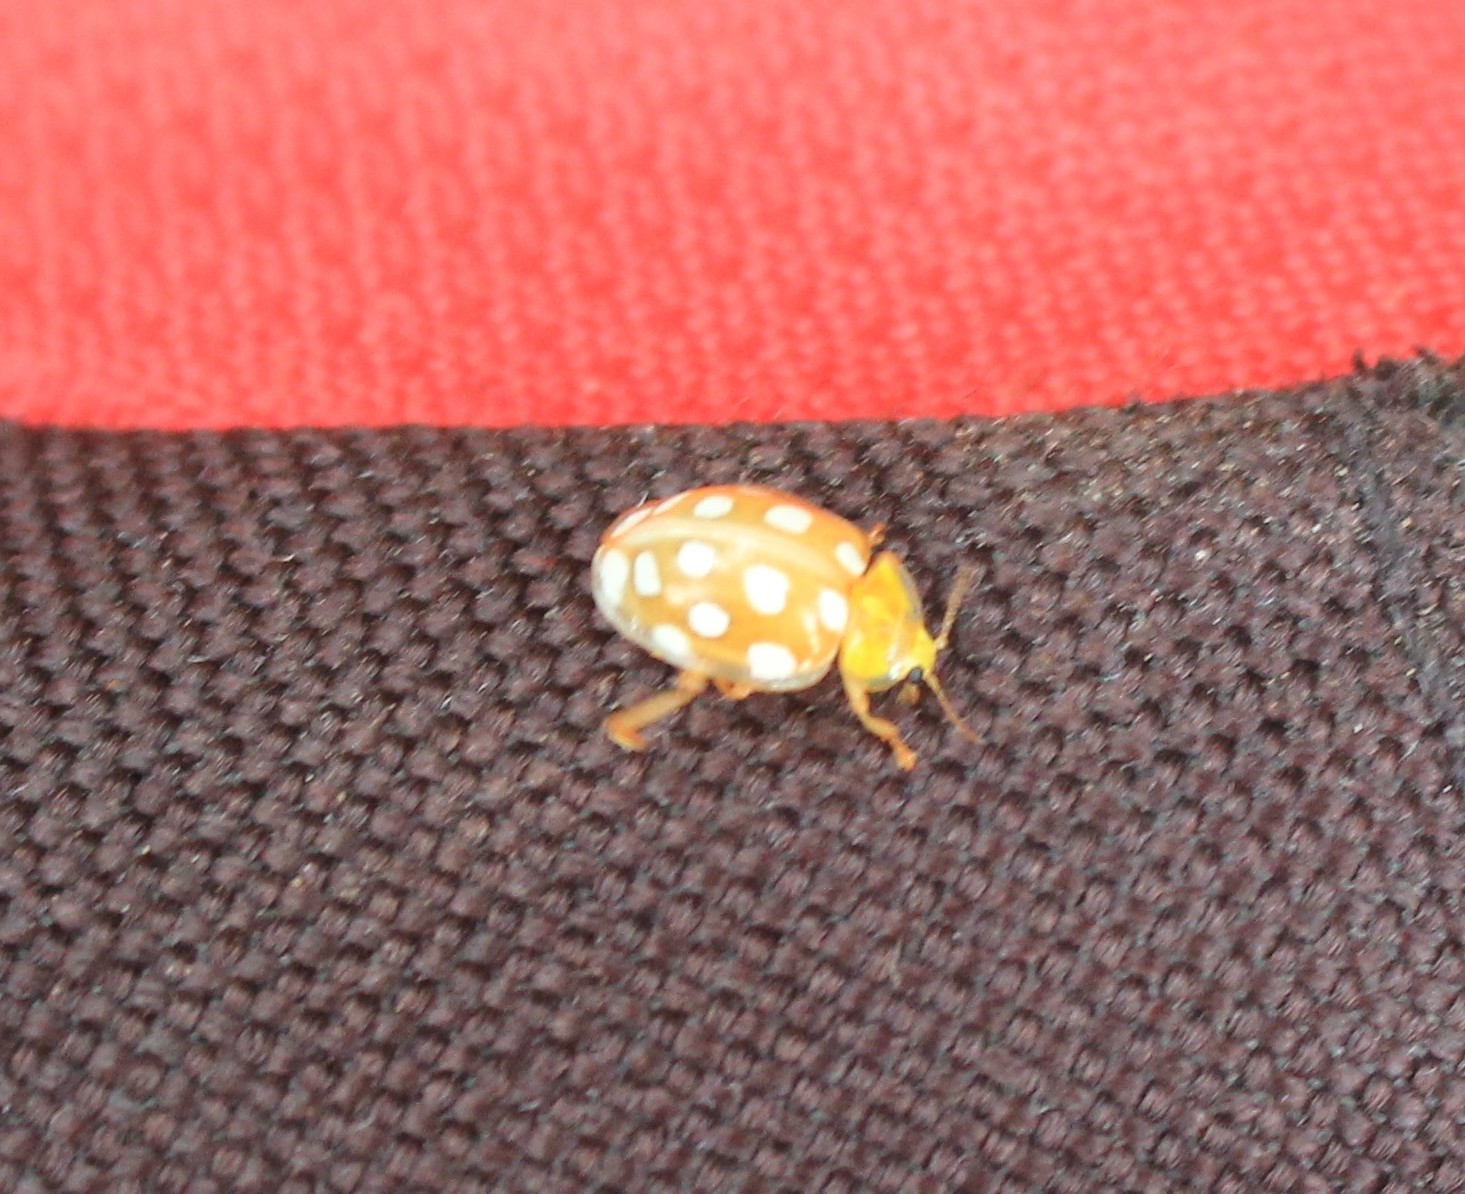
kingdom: Animalia
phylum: Arthropoda
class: Insecta
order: Coleoptera
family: Coccinellidae
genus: Halyzia
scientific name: Halyzia sedecimguttata
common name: Orange ladybird
